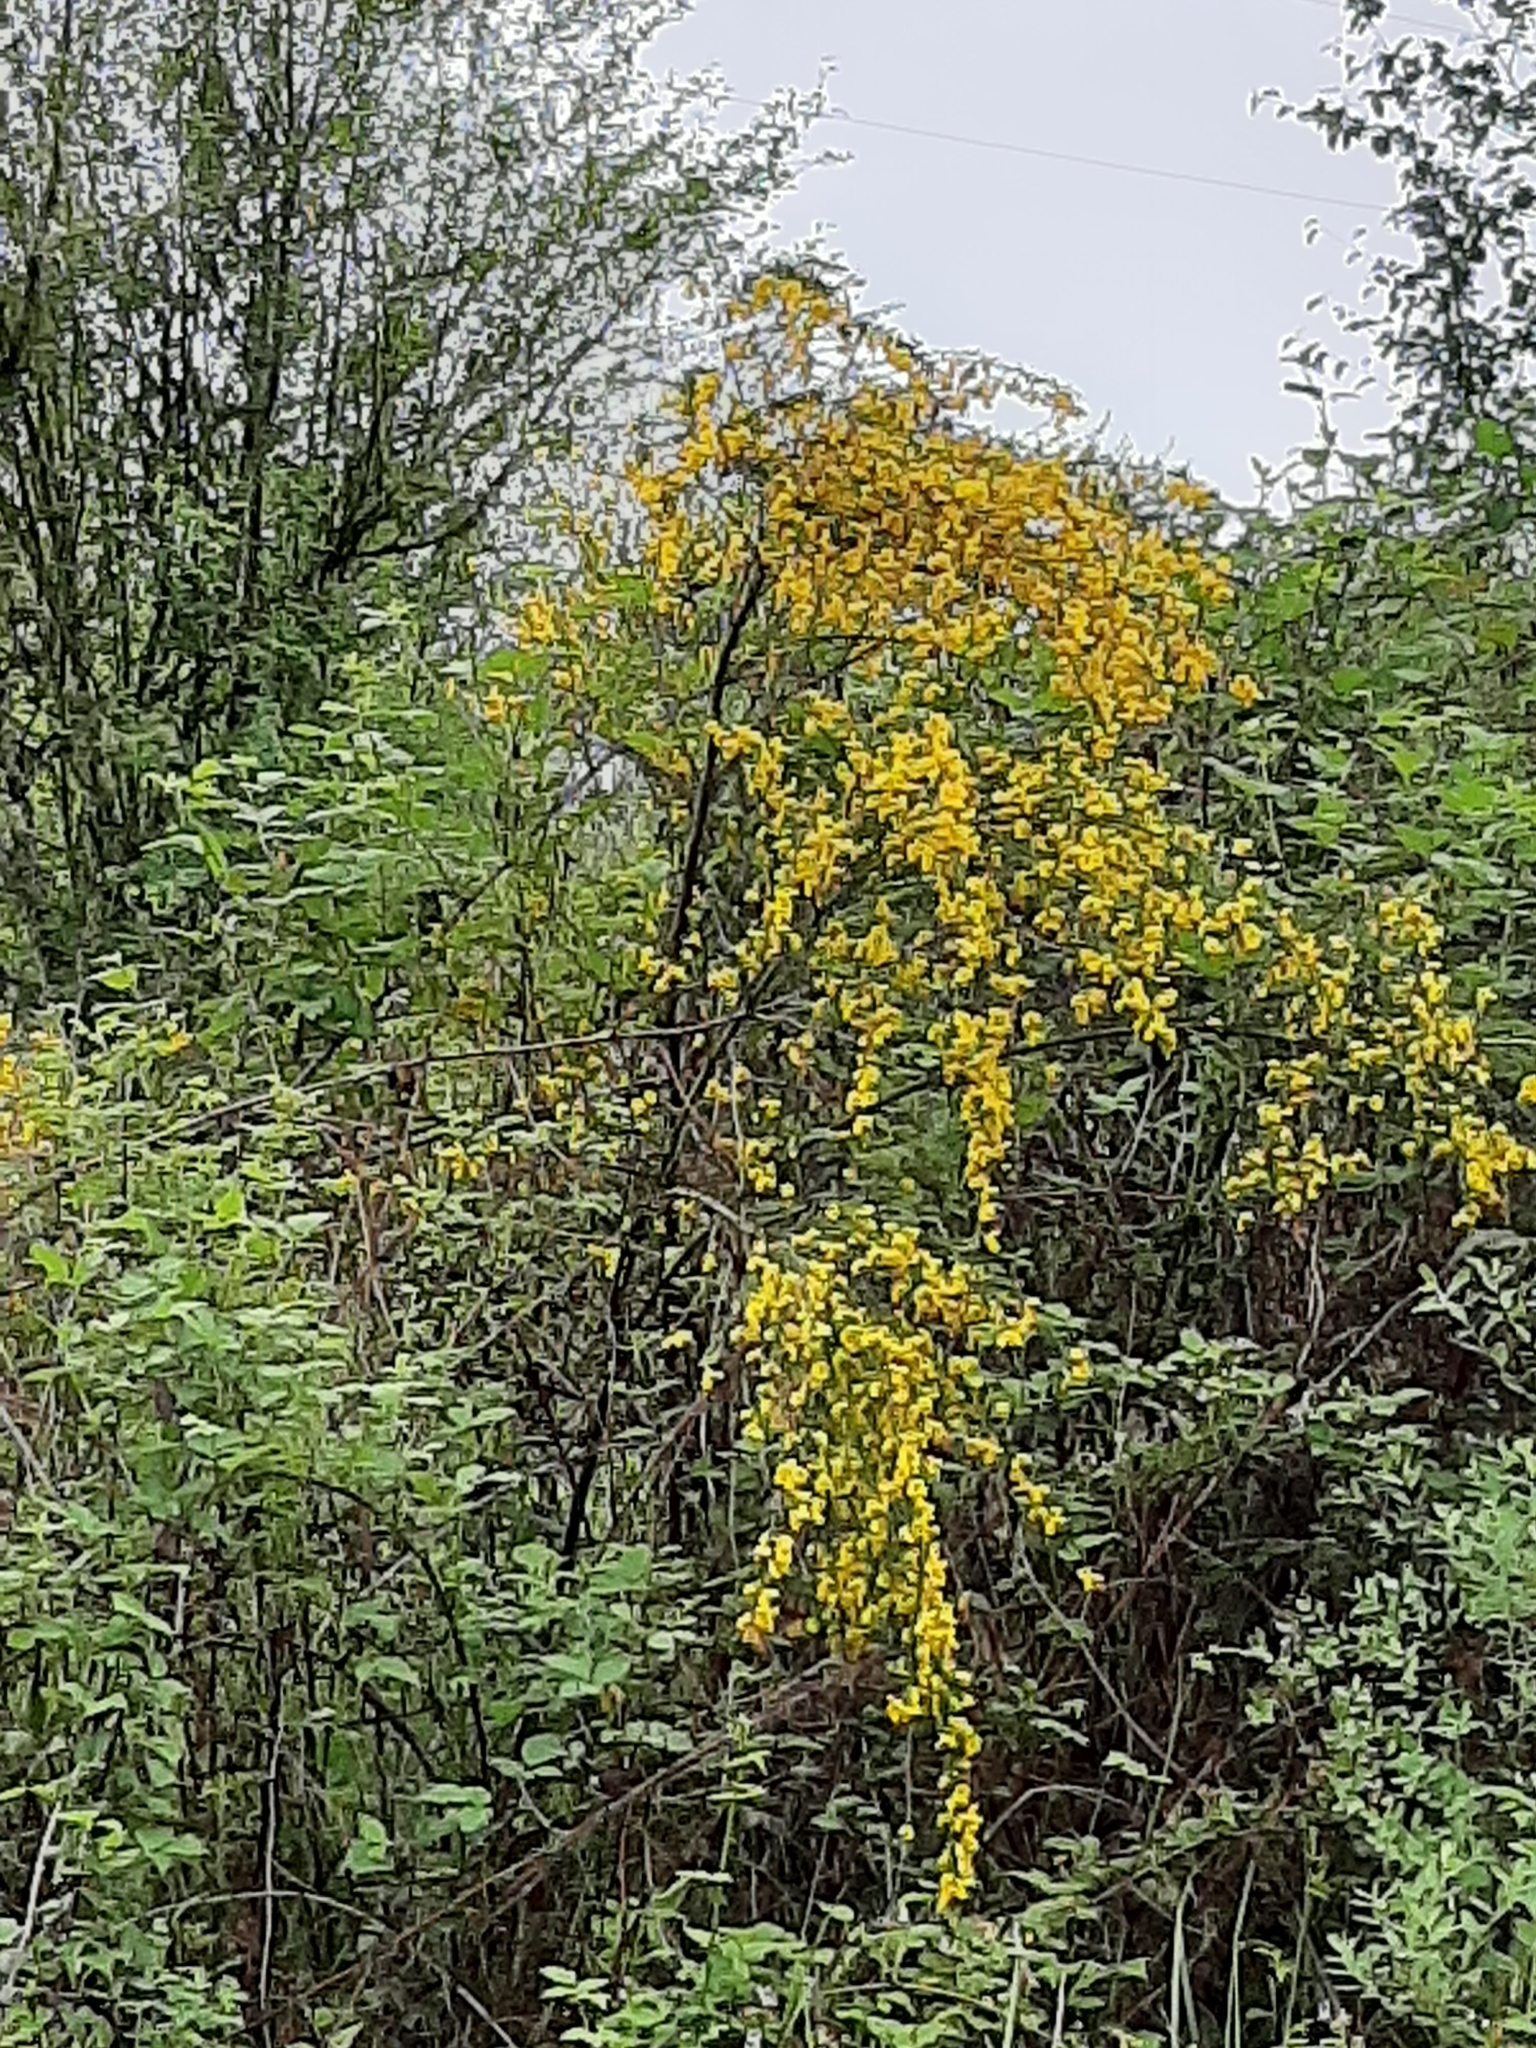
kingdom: Plantae
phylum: Tracheophyta
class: Magnoliopsida
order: Fabales
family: Fabaceae
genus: Cytisus
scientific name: Cytisus scoparius
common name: Scotch broom
